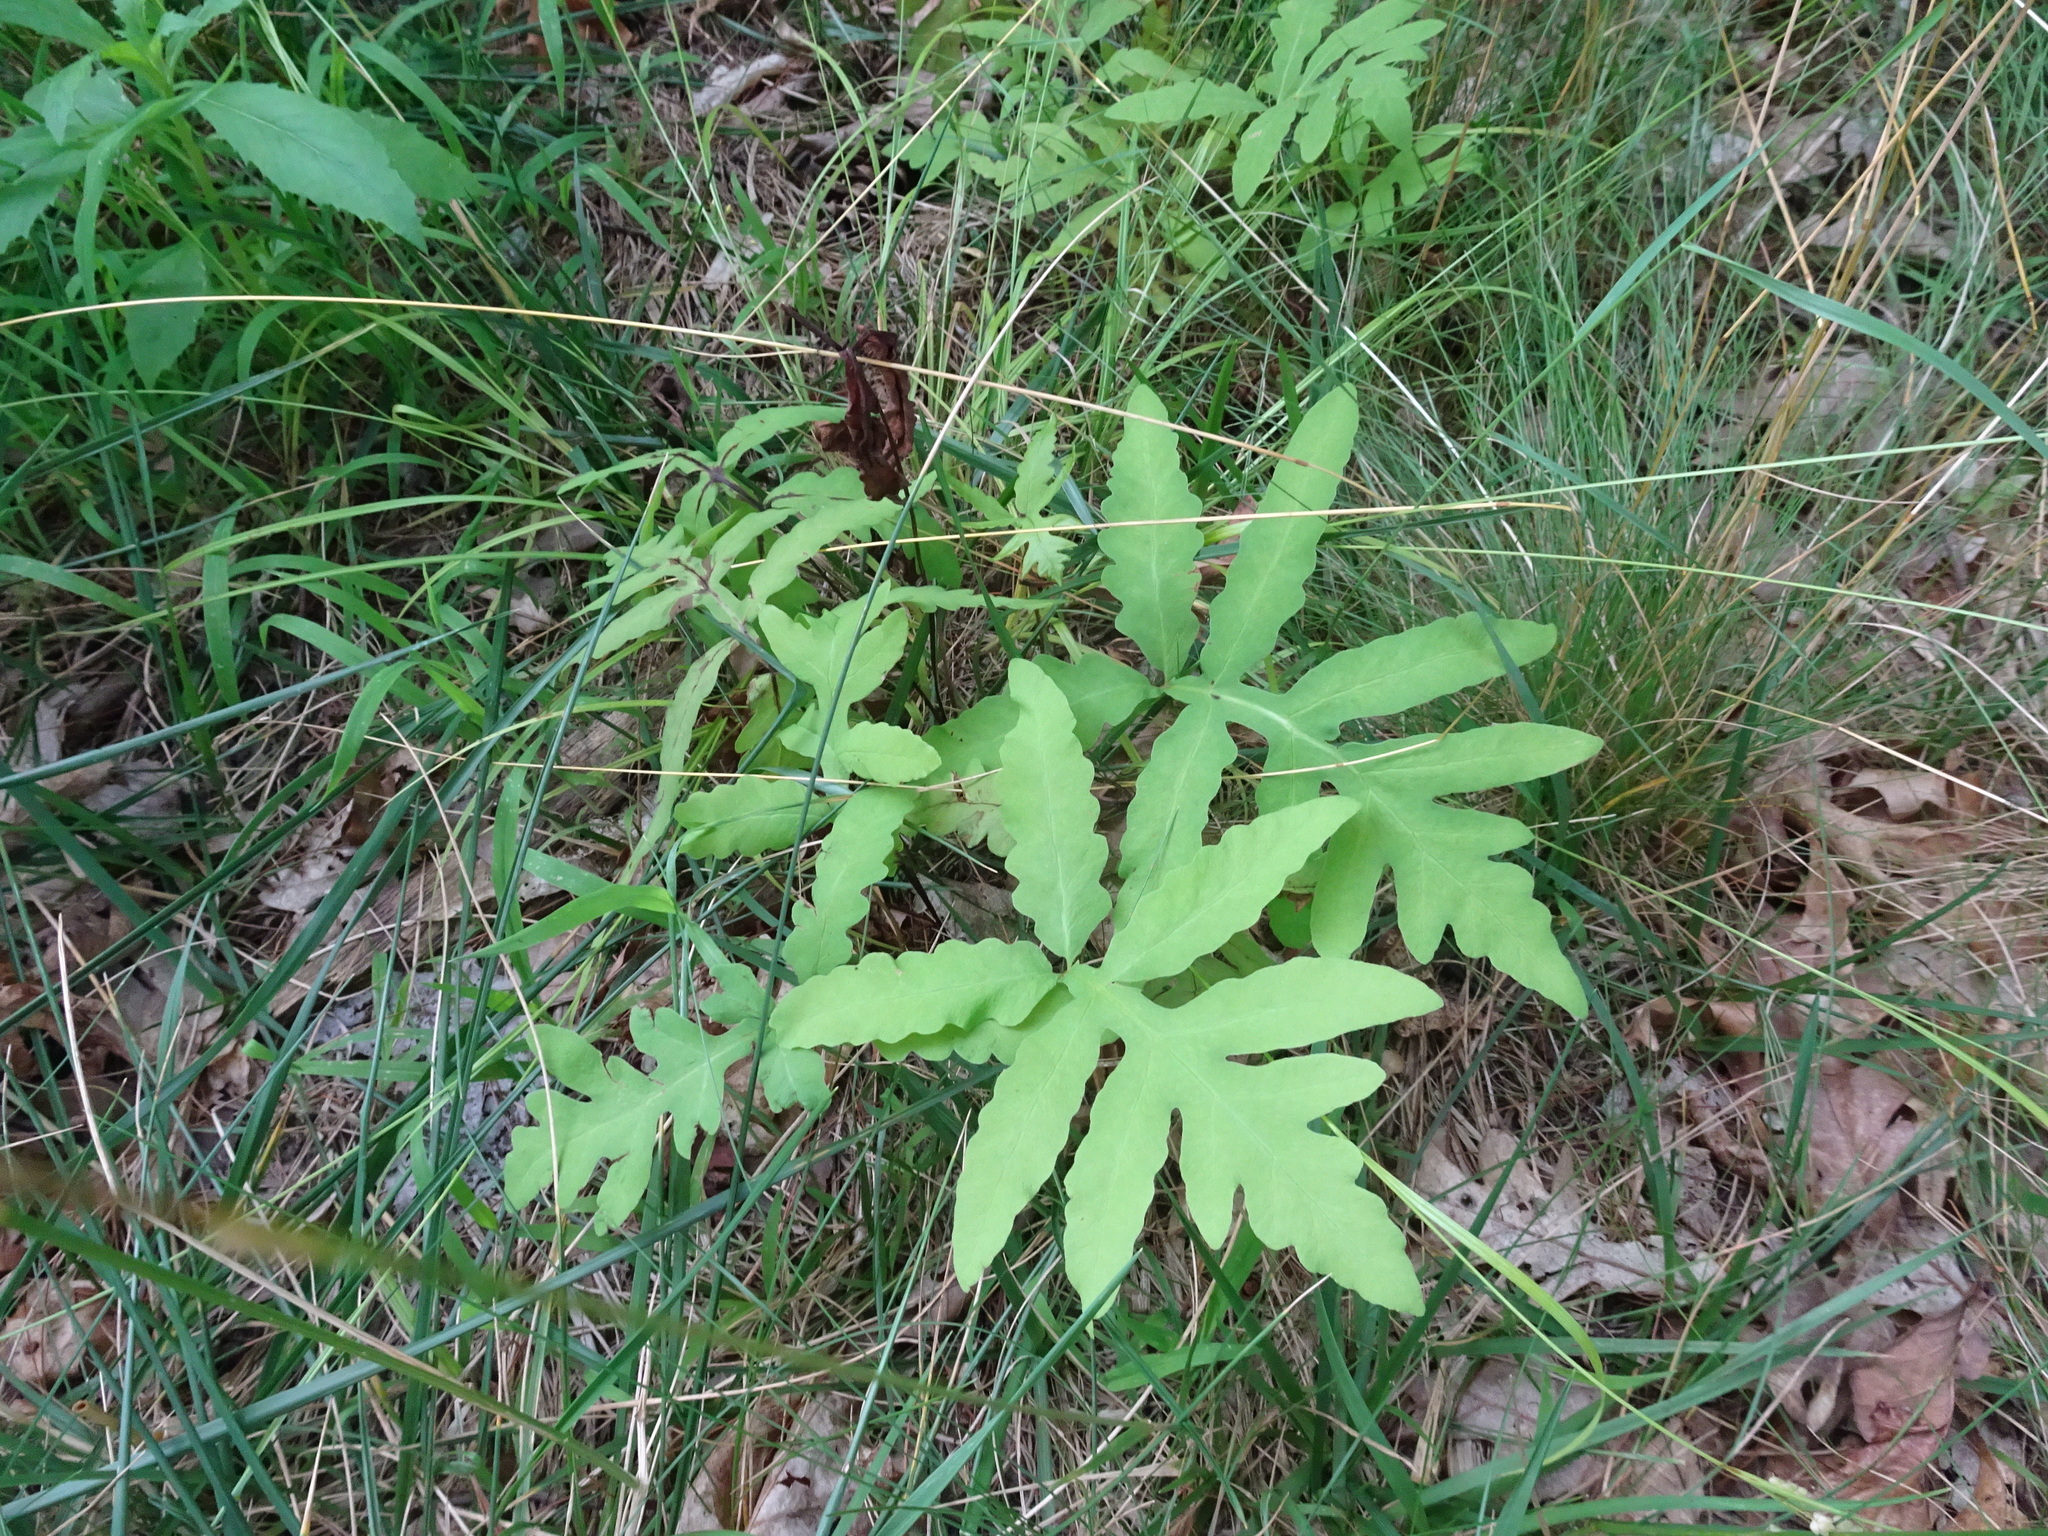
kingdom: Plantae
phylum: Tracheophyta
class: Polypodiopsida
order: Polypodiales
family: Onocleaceae
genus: Onoclea
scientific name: Onoclea sensibilis
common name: Sensitive fern
